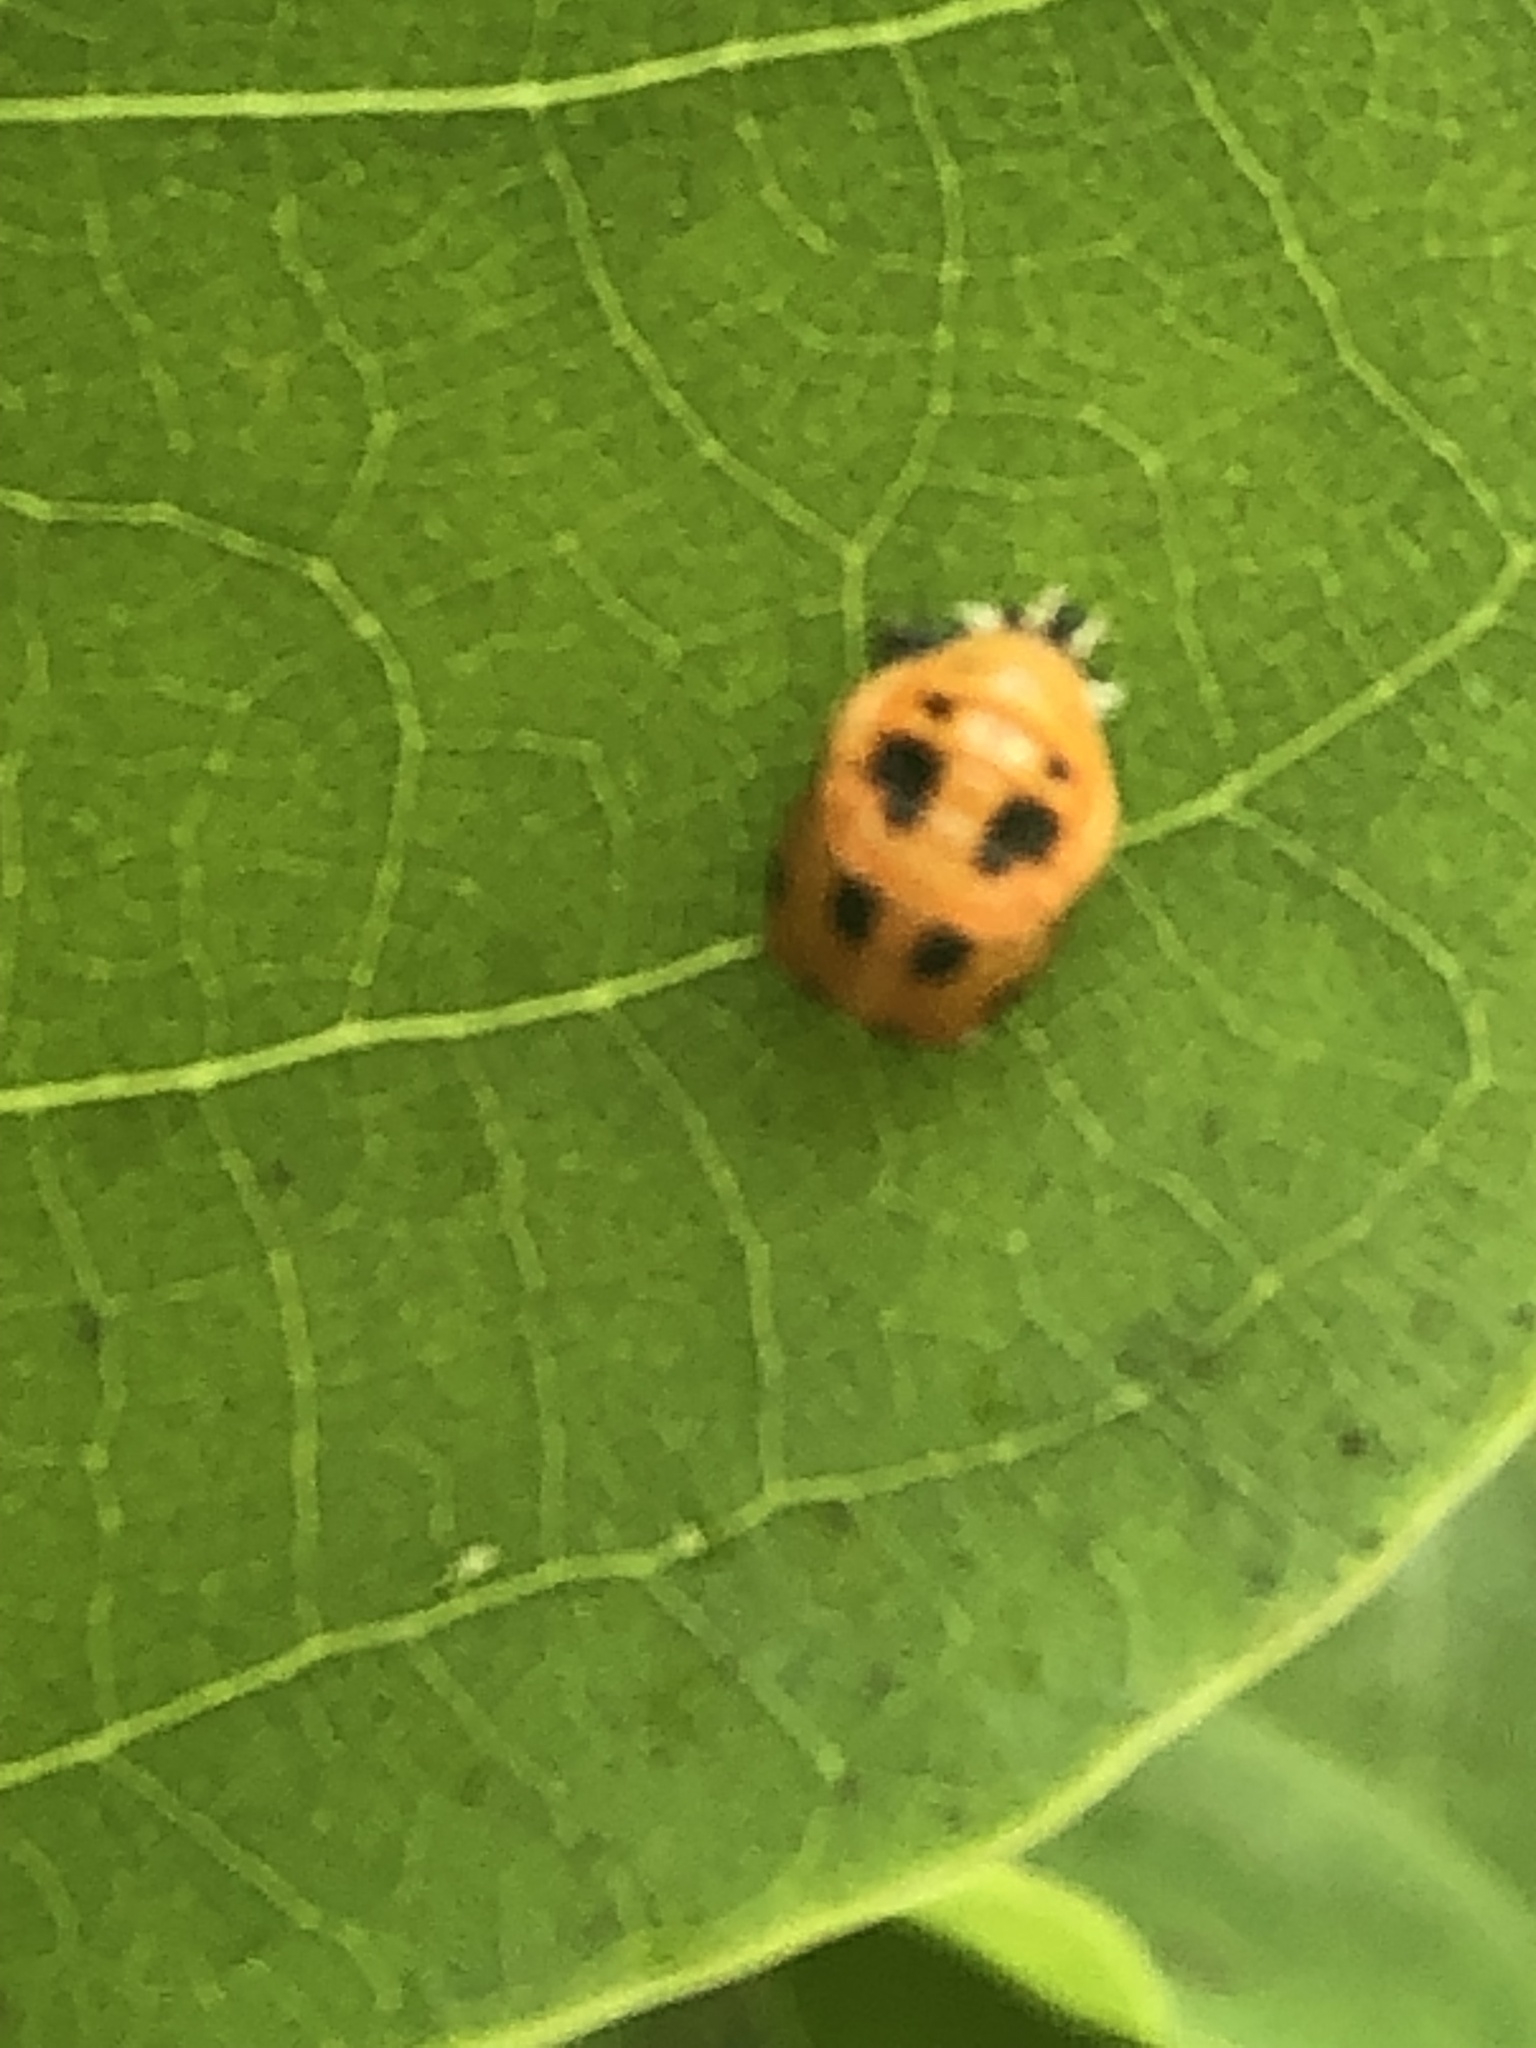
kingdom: Animalia
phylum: Arthropoda
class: Insecta
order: Coleoptera
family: Coccinellidae
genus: Harmonia
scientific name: Harmonia axyridis
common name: Harlequin ladybird
